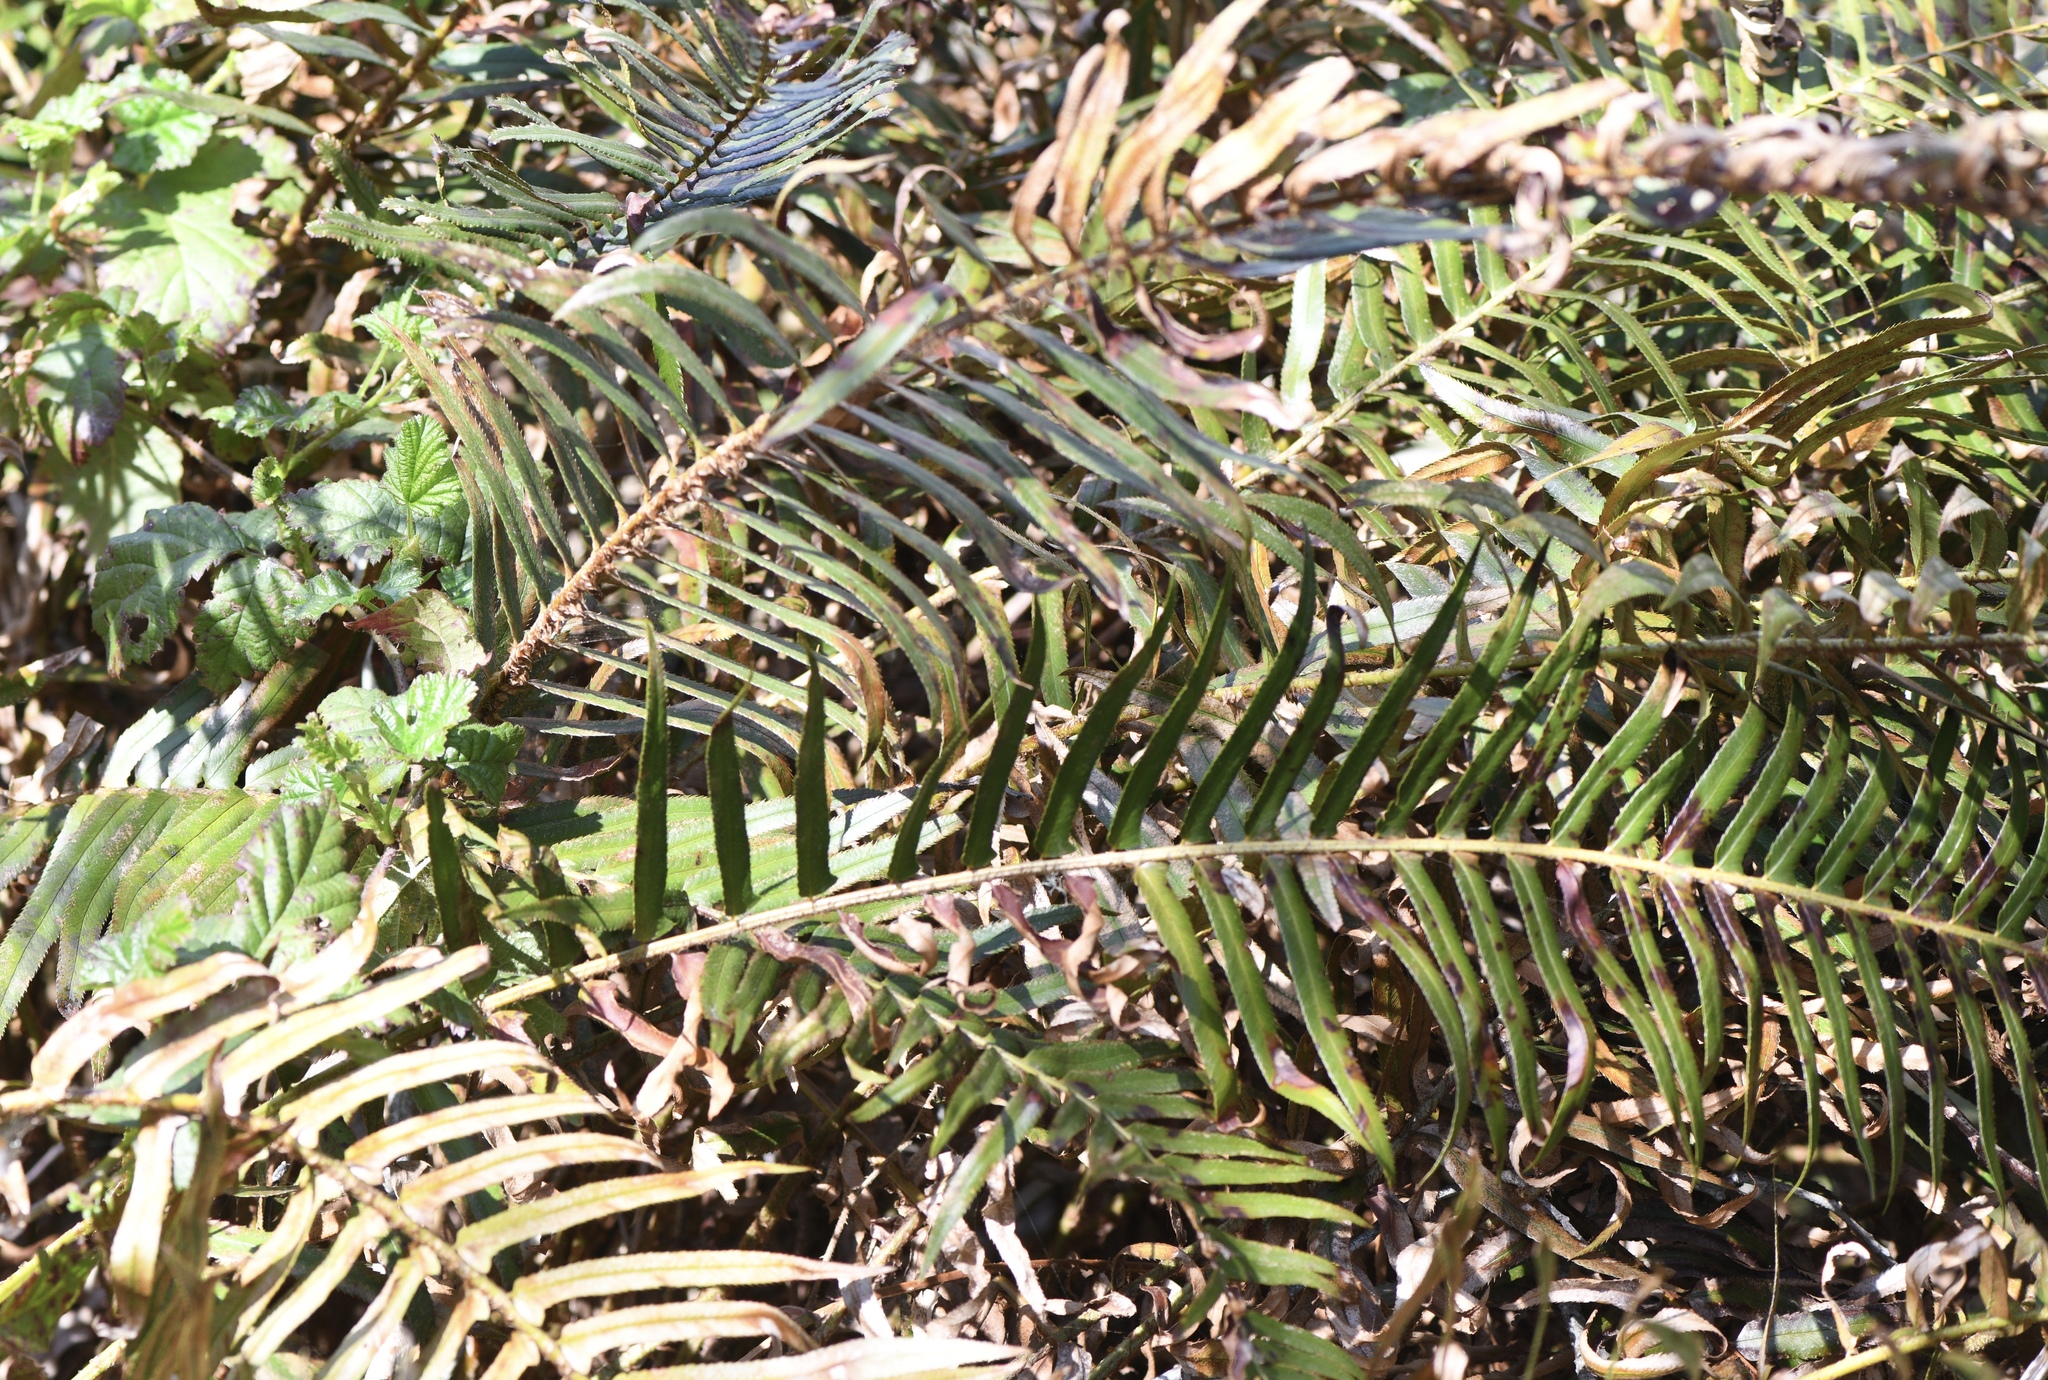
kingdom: Plantae
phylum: Tracheophyta
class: Polypodiopsida
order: Polypodiales
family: Dryopteridaceae
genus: Polystichum
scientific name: Polystichum munitum
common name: Western sword-fern
